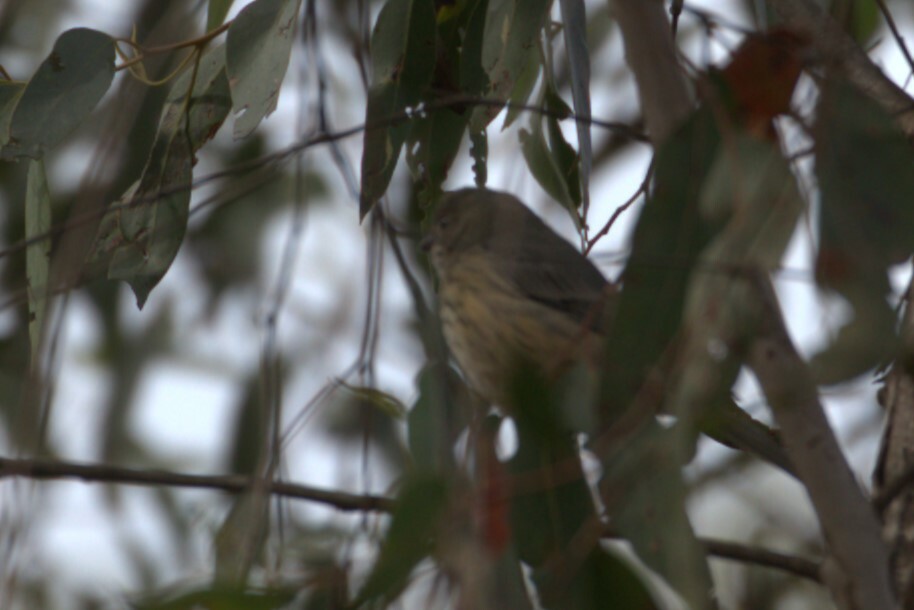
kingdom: Animalia
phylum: Chordata
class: Aves
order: Passeriformes
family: Pachycephalidae
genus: Pachycephala
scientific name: Pachycephala rufiventris
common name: Rufous whistler
